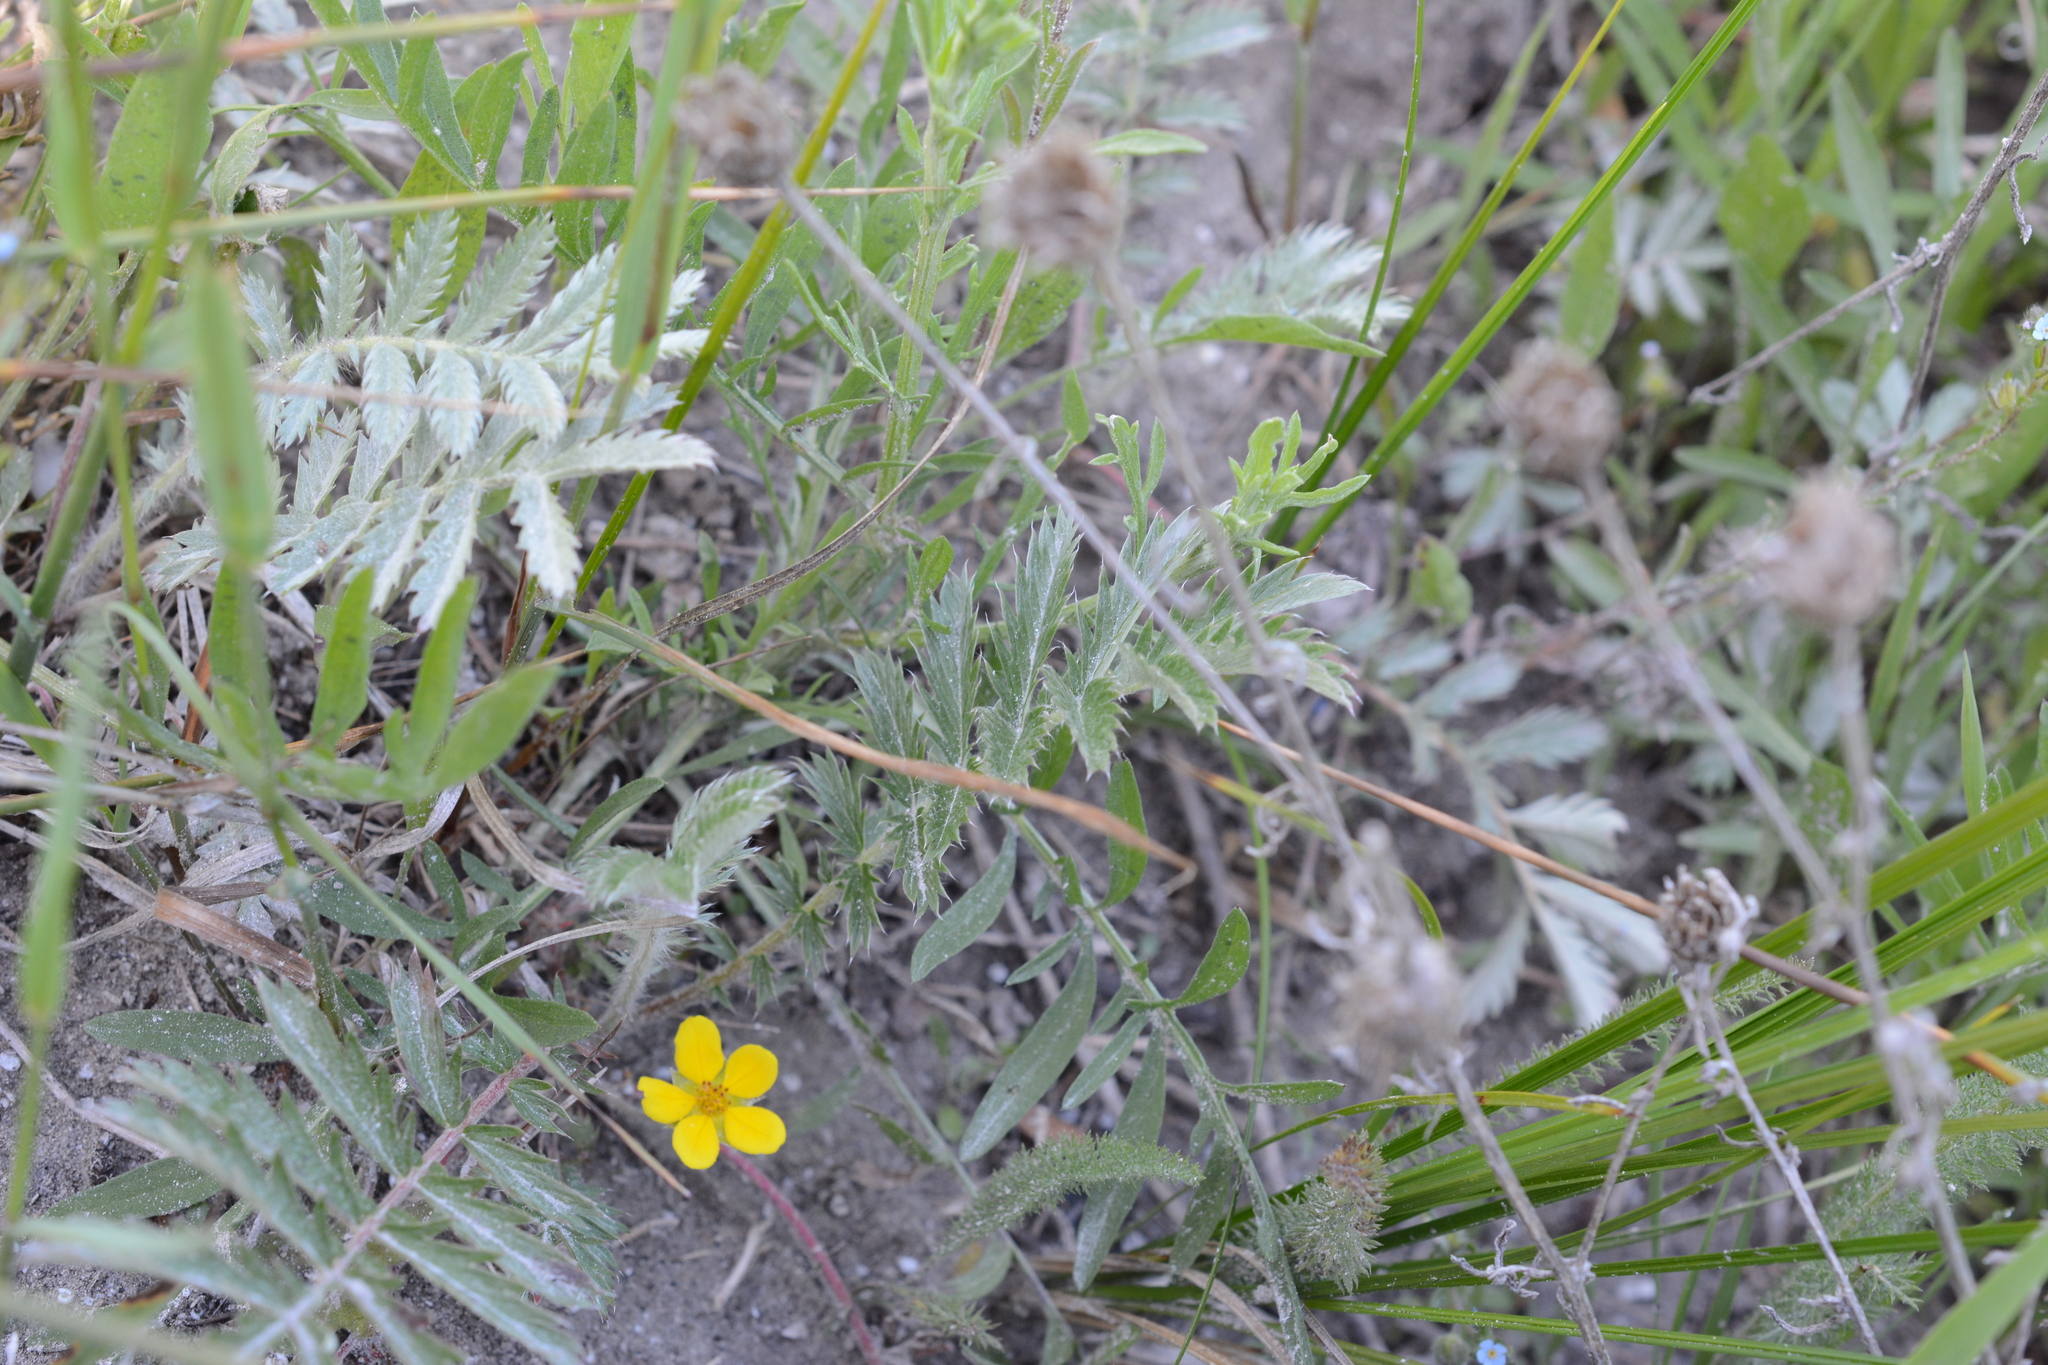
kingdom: Plantae
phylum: Tracheophyta
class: Magnoliopsida
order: Rosales
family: Rosaceae
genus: Argentina
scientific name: Argentina anserina
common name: Common silverweed
